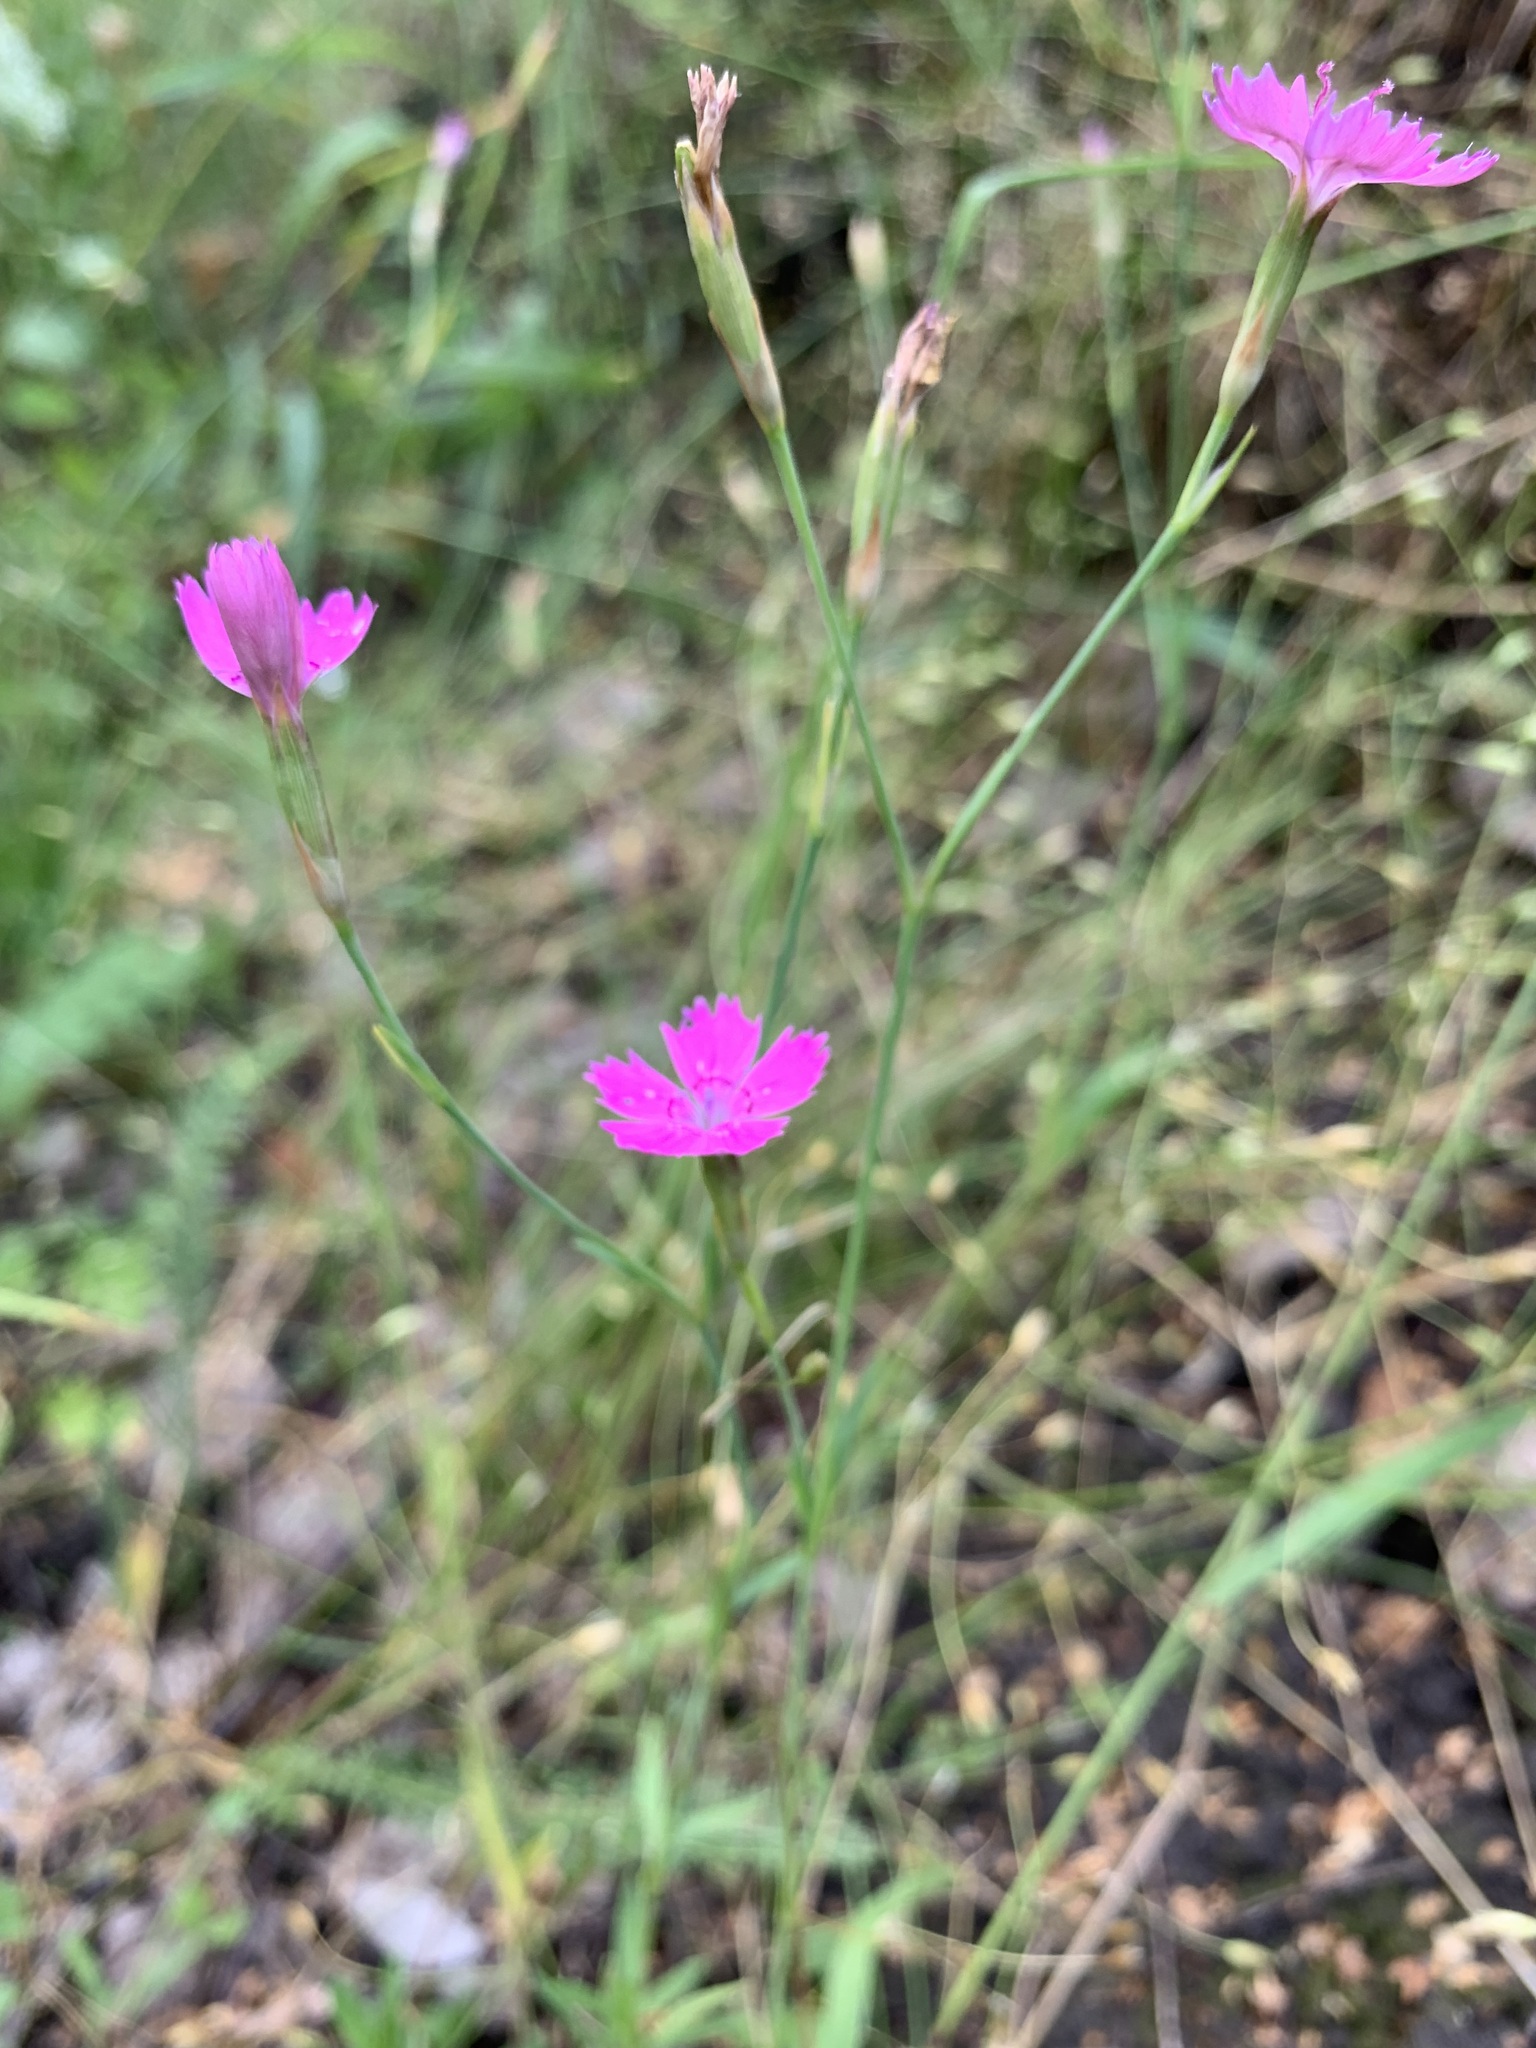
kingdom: Plantae
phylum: Tracheophyta
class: Magnoliopsida
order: Caryophyllales
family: Caryophyllaceae
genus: Dianthus
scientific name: Dianthus deltoides
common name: Maiden pink
